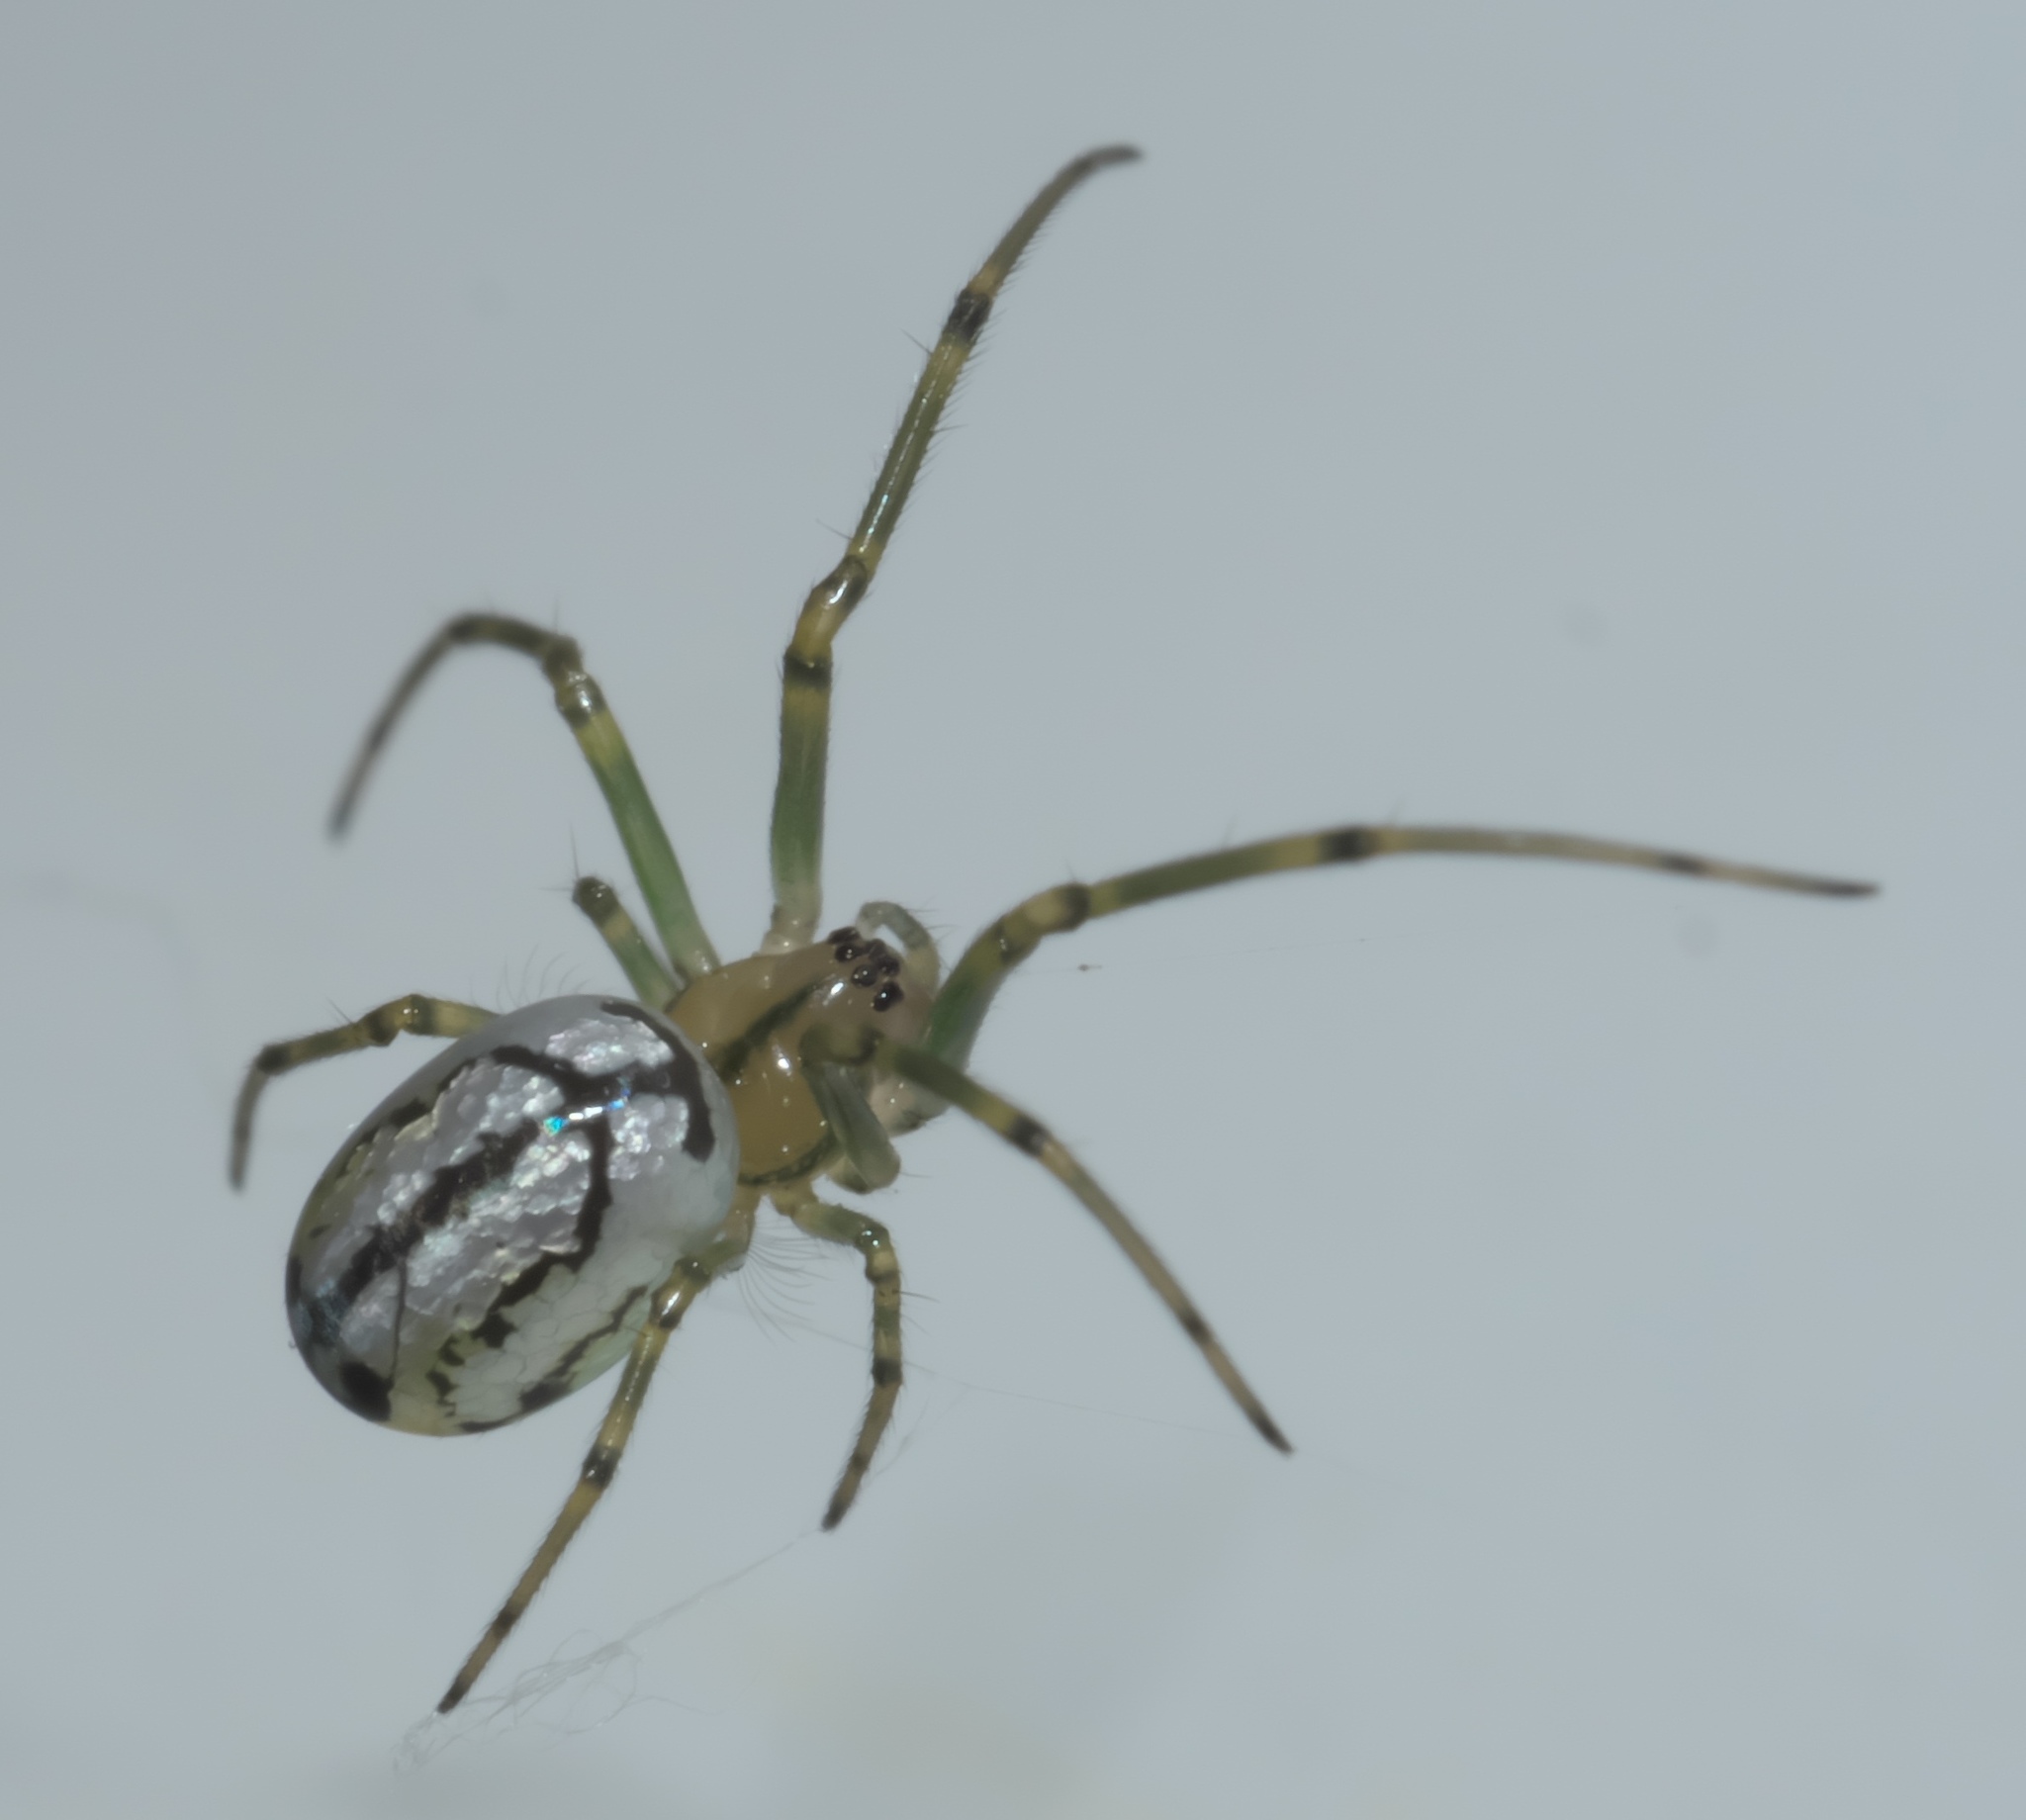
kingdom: Animalia
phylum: Arthropoda
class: Arachnida
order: Araneae
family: Tetragnathidae
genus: Leucauge
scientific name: Leucauge venusta
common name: Longjawed orb weavers
